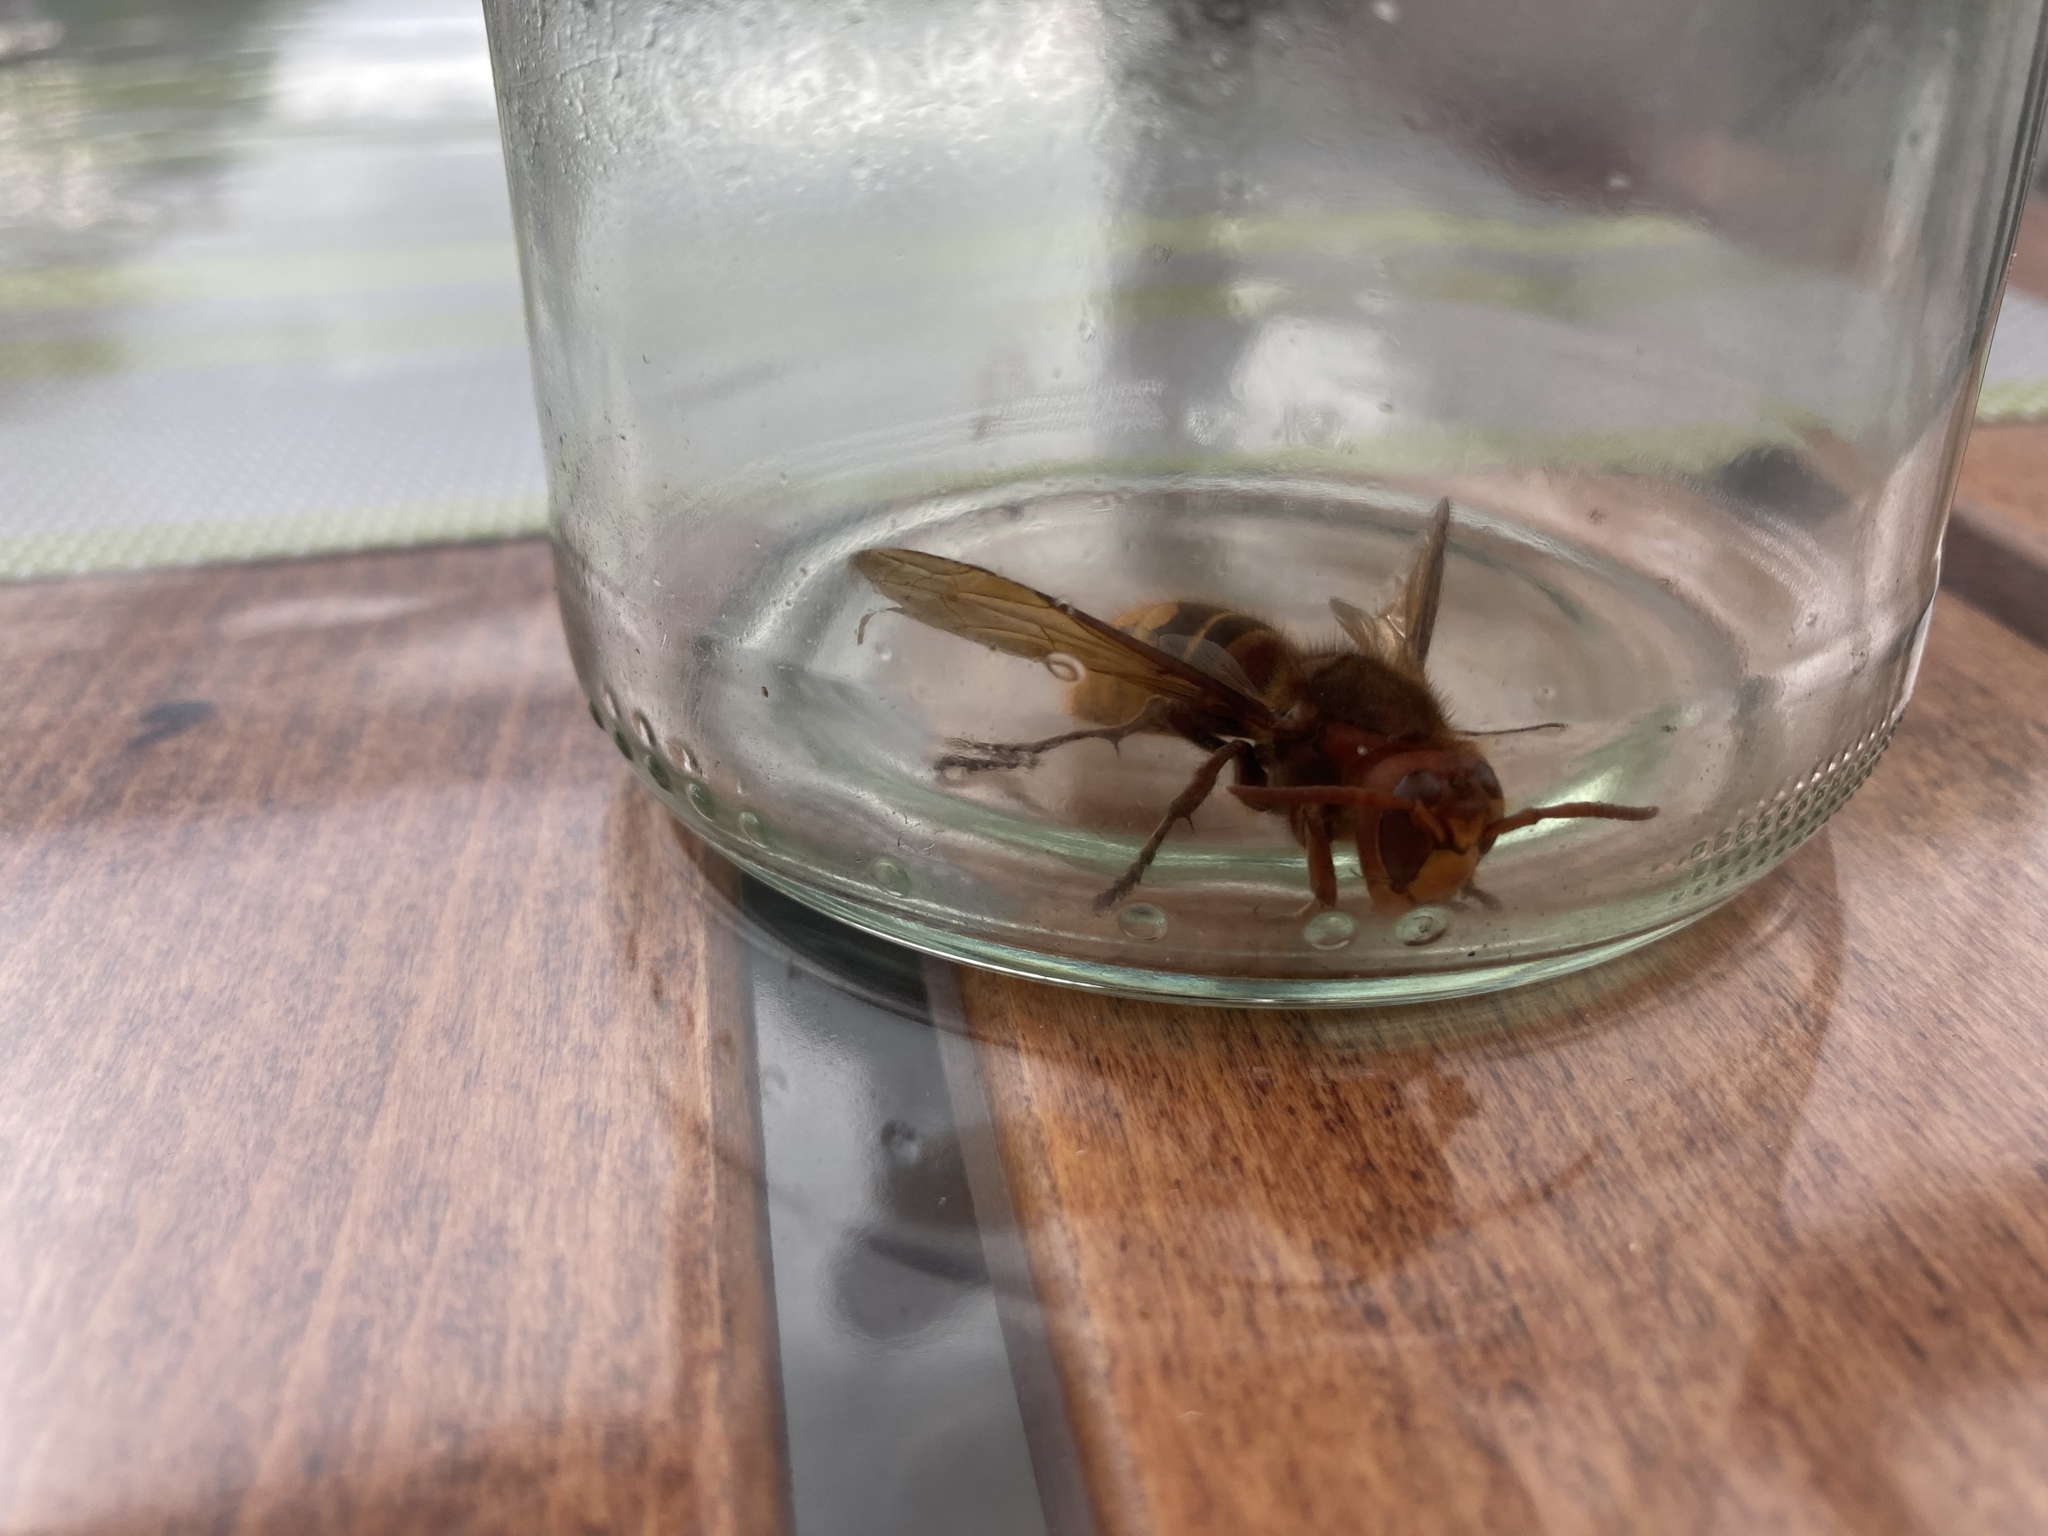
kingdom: Animalia
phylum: Arthropoda
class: Insecta
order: Hymenoptera
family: Vespidae
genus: Vespa
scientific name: Vespa crabro
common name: Hornet
